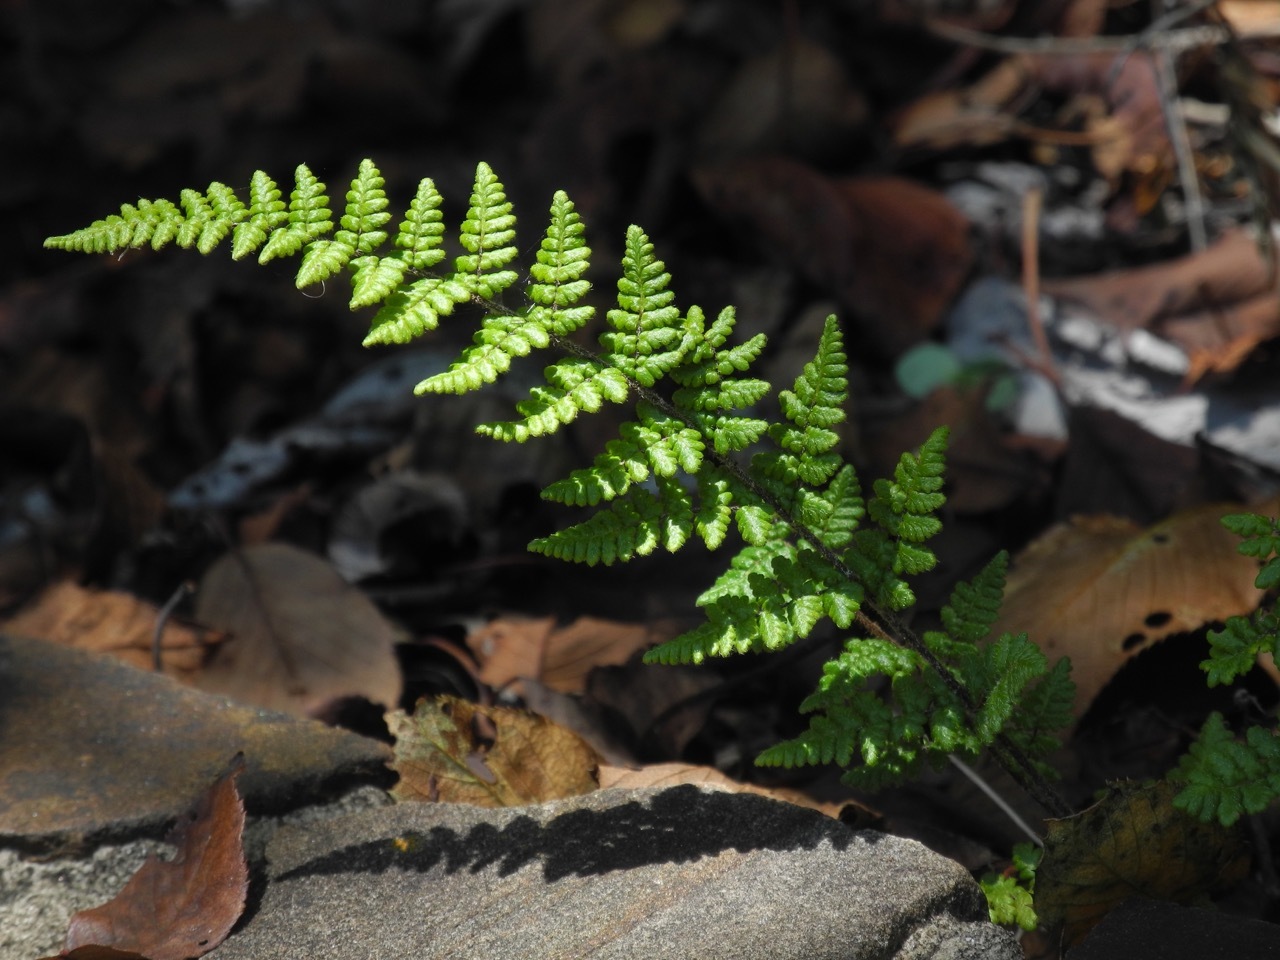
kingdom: Plantae
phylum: Tracheophyta
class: Polypodiopsida
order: Polypodiales
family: Pteridaceae
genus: Myriopteris
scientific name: Myriopteris lanosa
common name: Hairy lip fern
